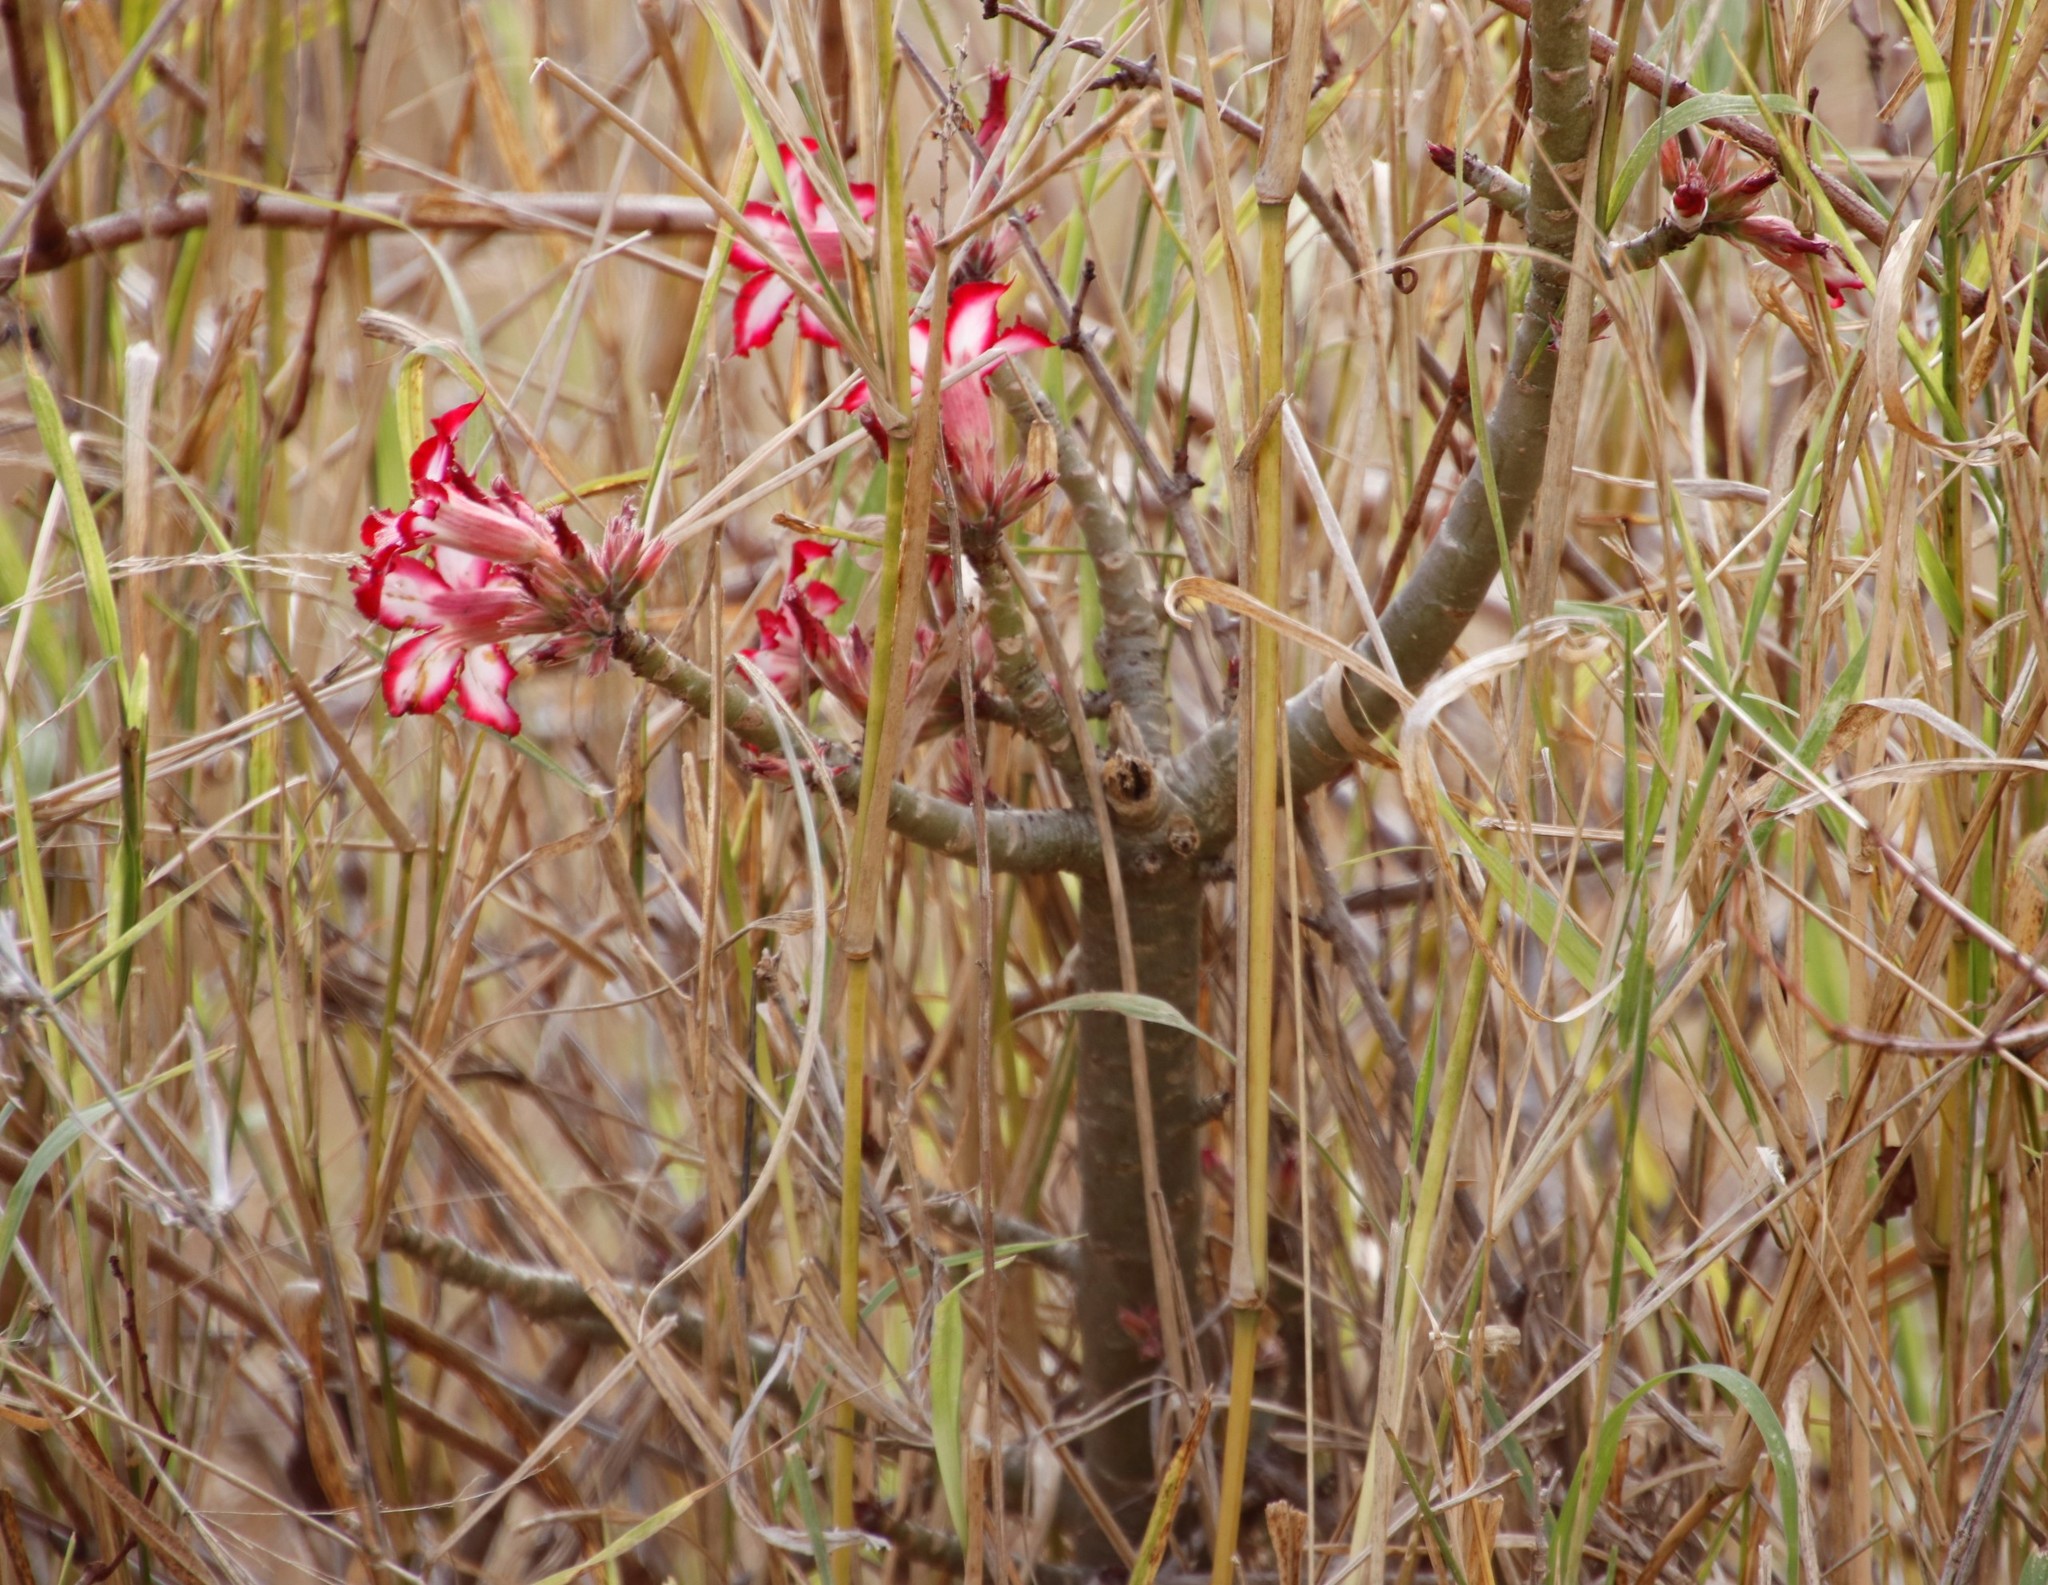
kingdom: Plantae
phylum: Tracheophyta
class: Magnoliopsida
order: Gentianales
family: Apocynaceae
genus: Adenium
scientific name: Adenium obesum
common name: Desert-rose
